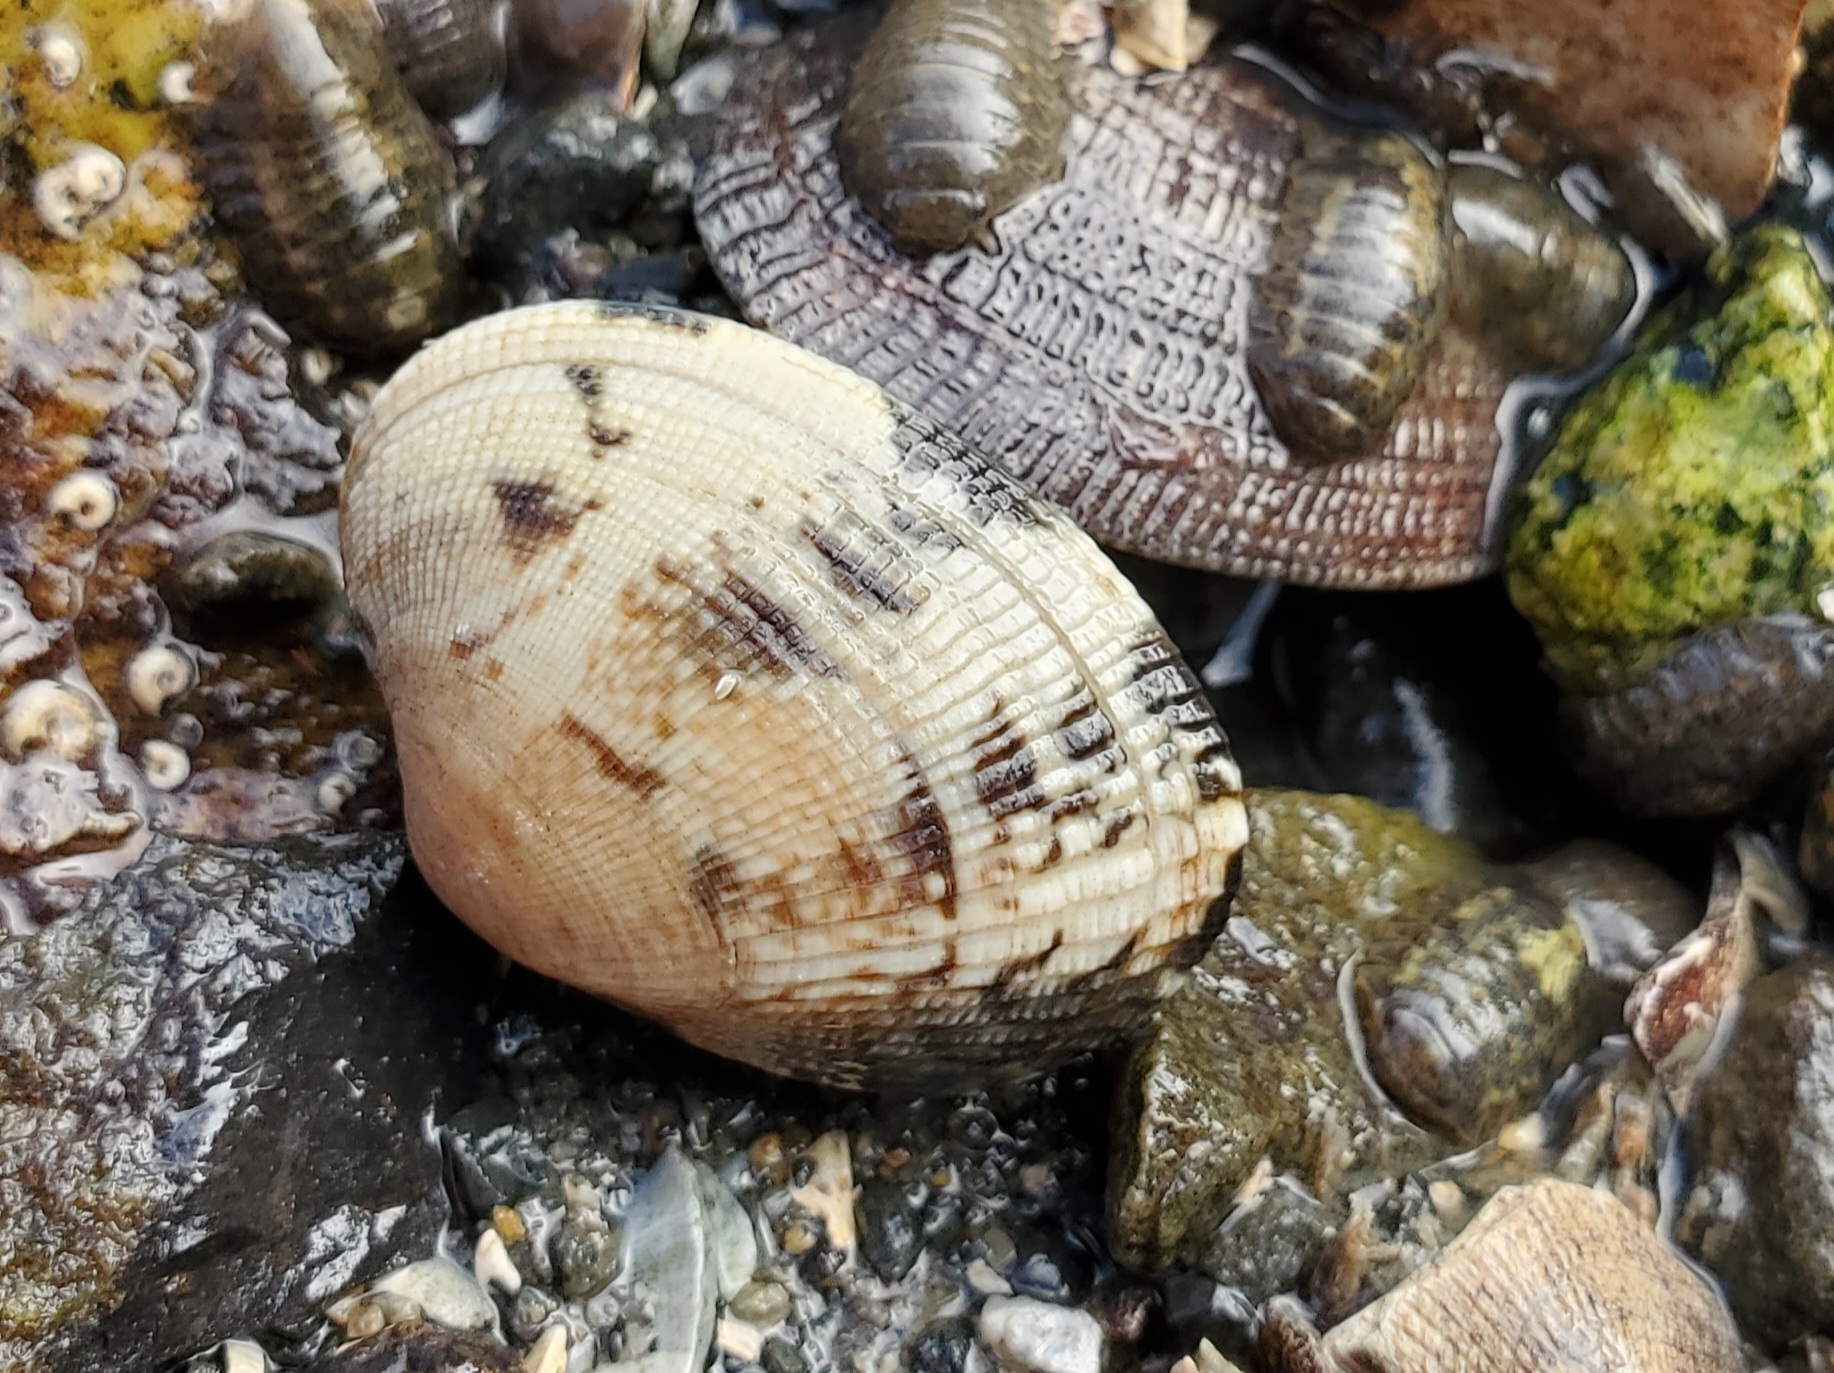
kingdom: Animalia
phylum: Mollusca
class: Bivalvia
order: Venerida
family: Veneridae
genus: Ruditapes
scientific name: Ruditapes philippinarum
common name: Manila clam
